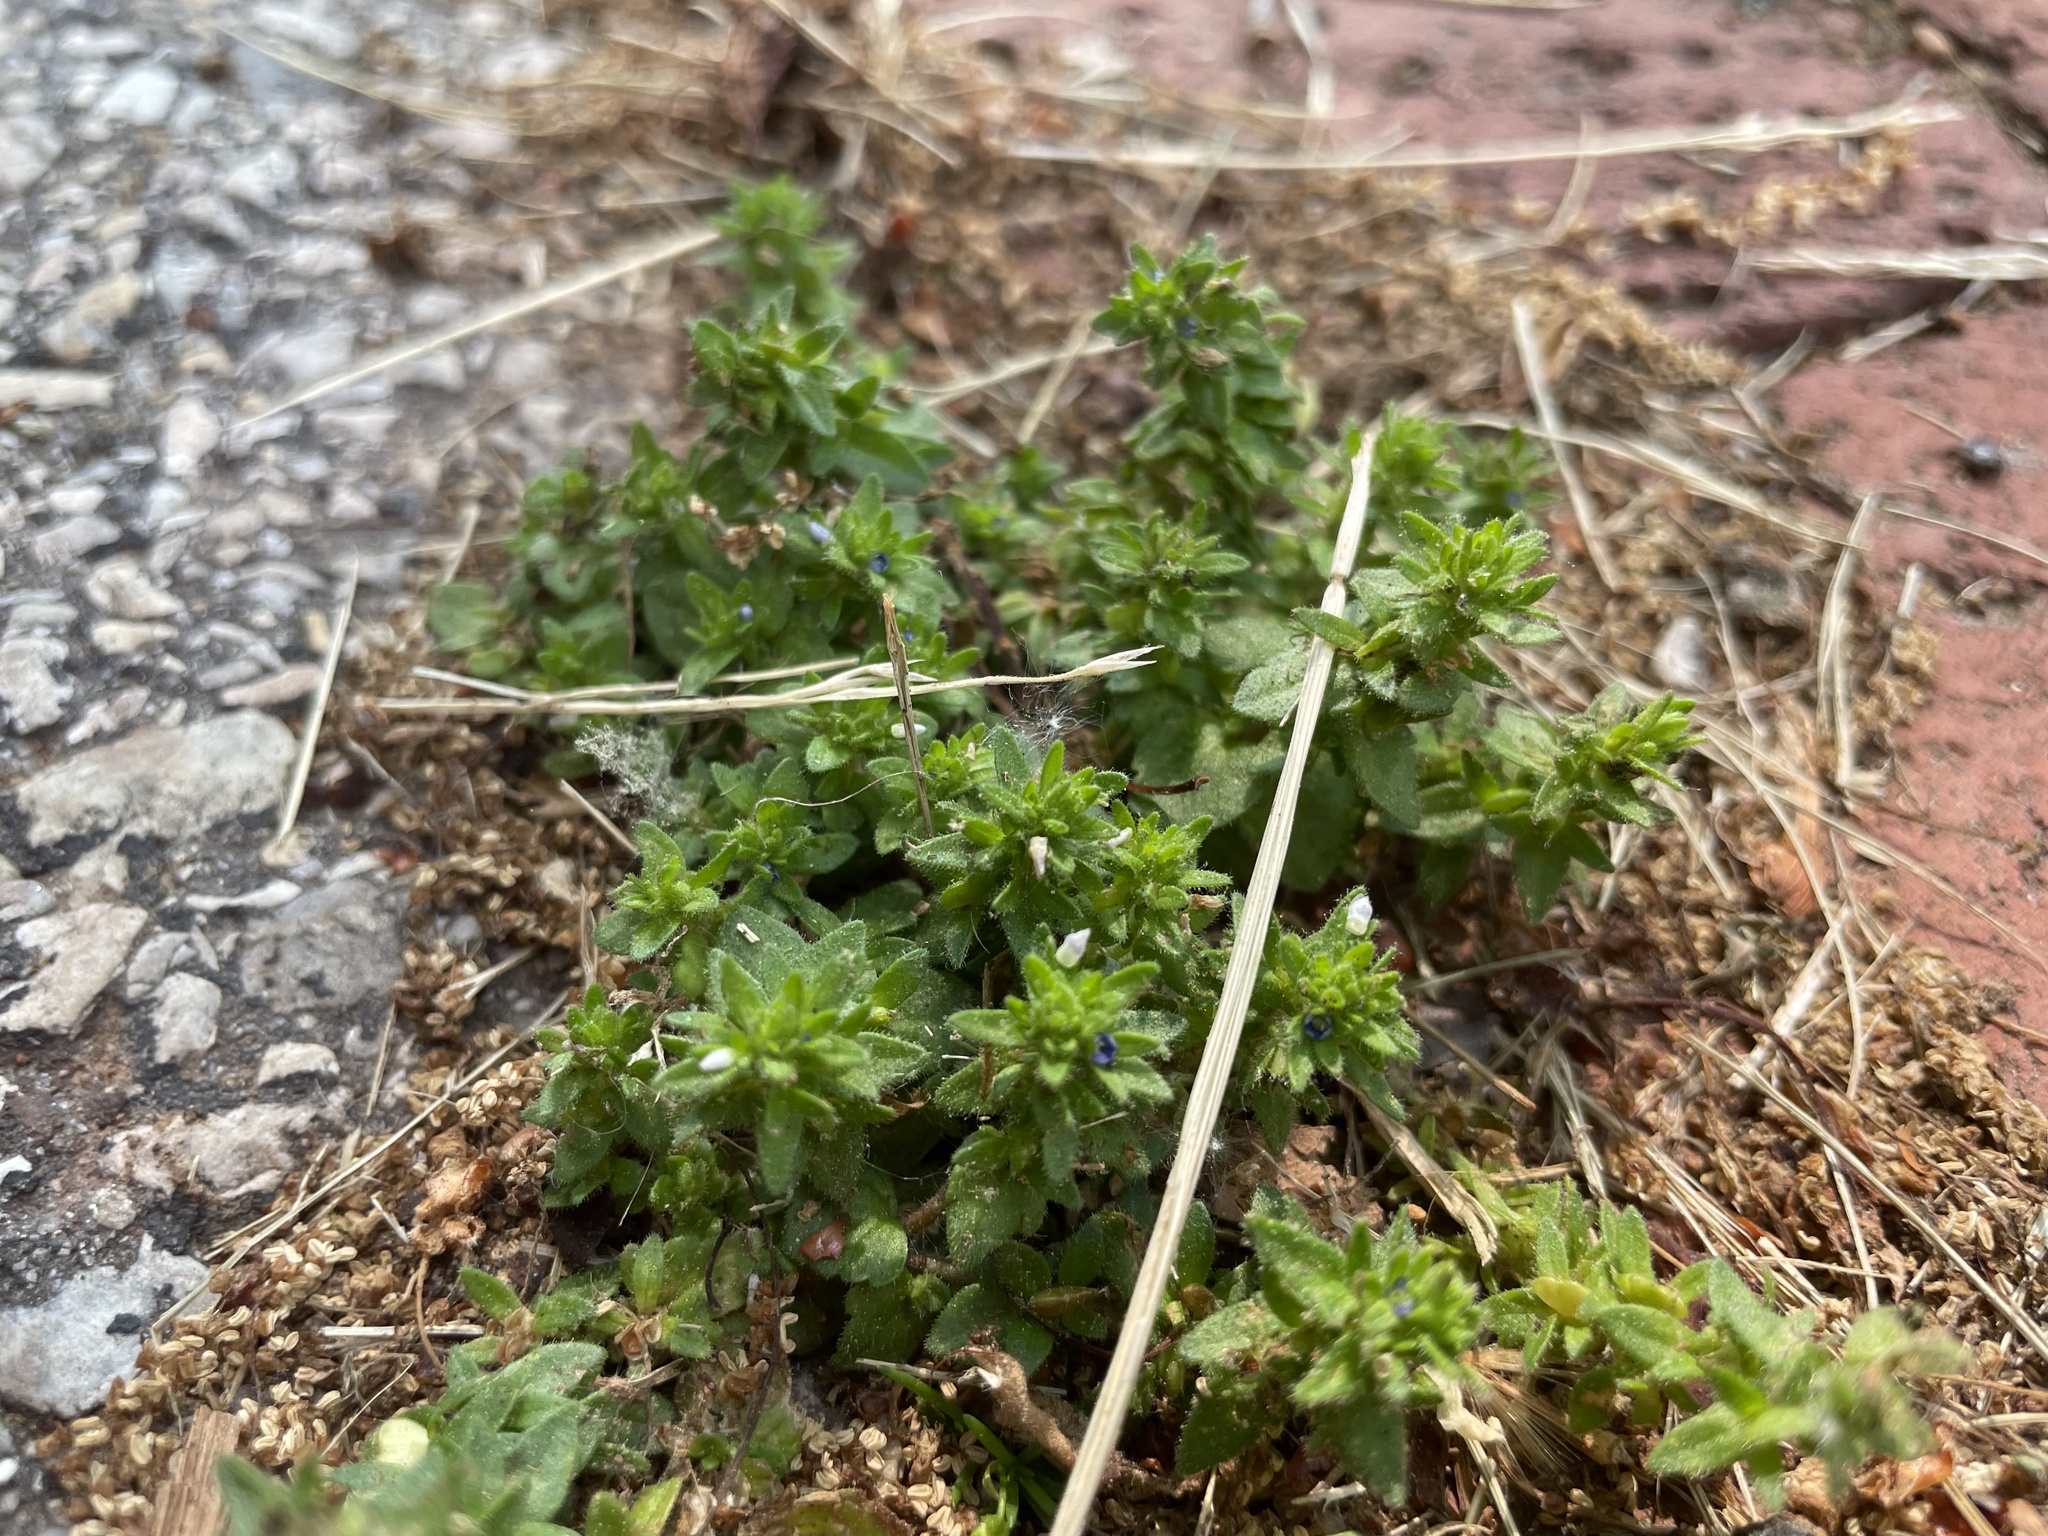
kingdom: Plantae
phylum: Tracheophyta
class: Magnoliopsida
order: Lamiales
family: Plantaginaceae
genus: Veronica
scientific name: Veronica arvensis
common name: Corn speedwell
